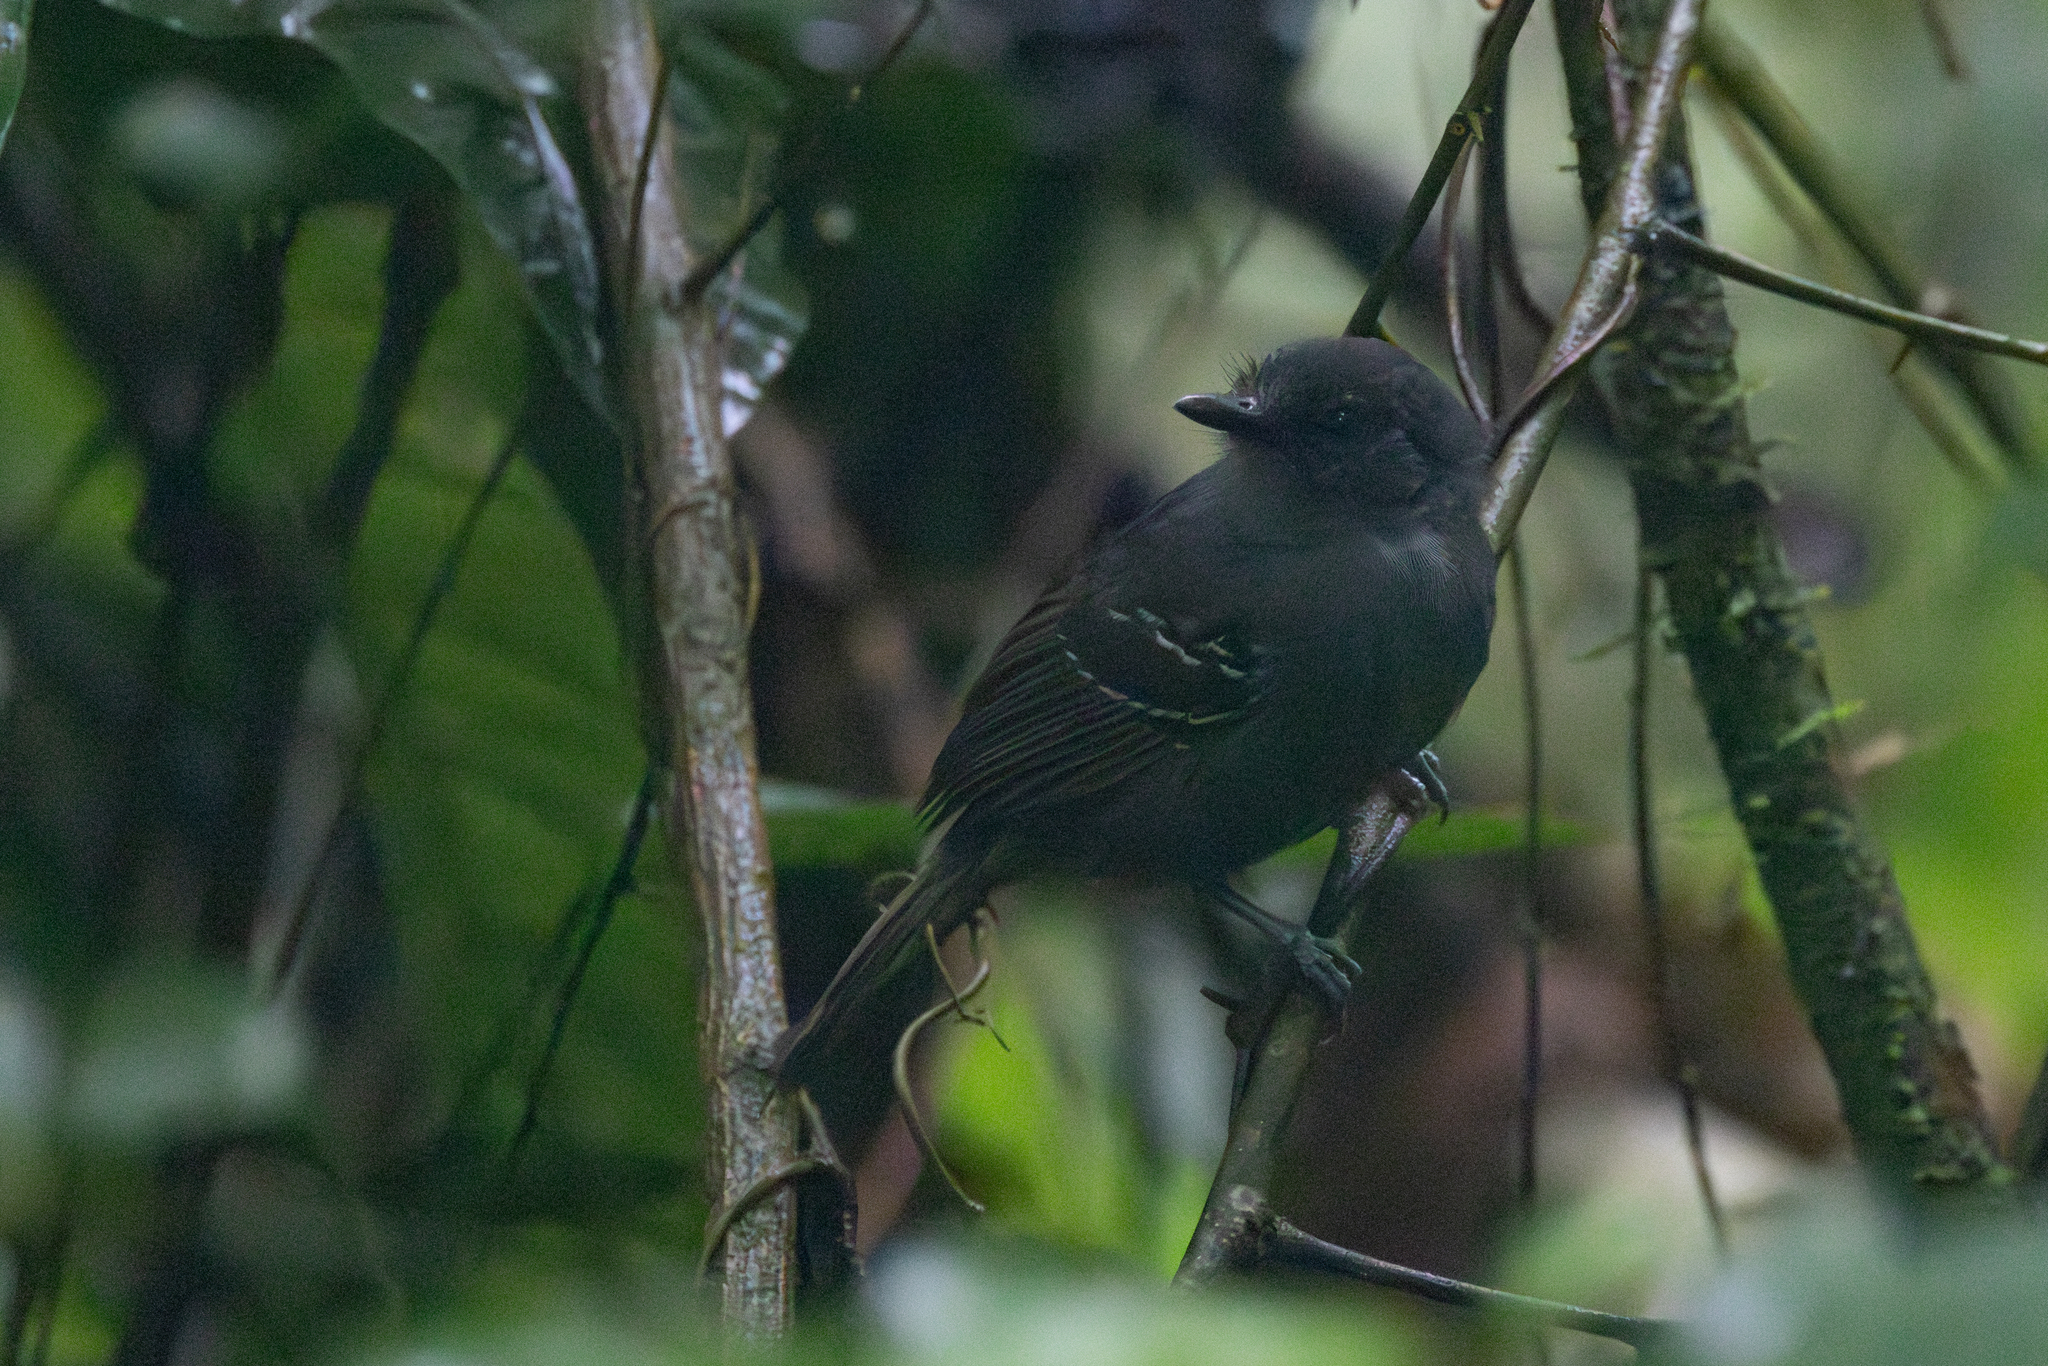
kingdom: Animalia
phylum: Chordata
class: Aves
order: Passeriformes
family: Thamnophilidae
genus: Cercomacra
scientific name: Cercomacra tyrannina
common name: Dusky antbird
